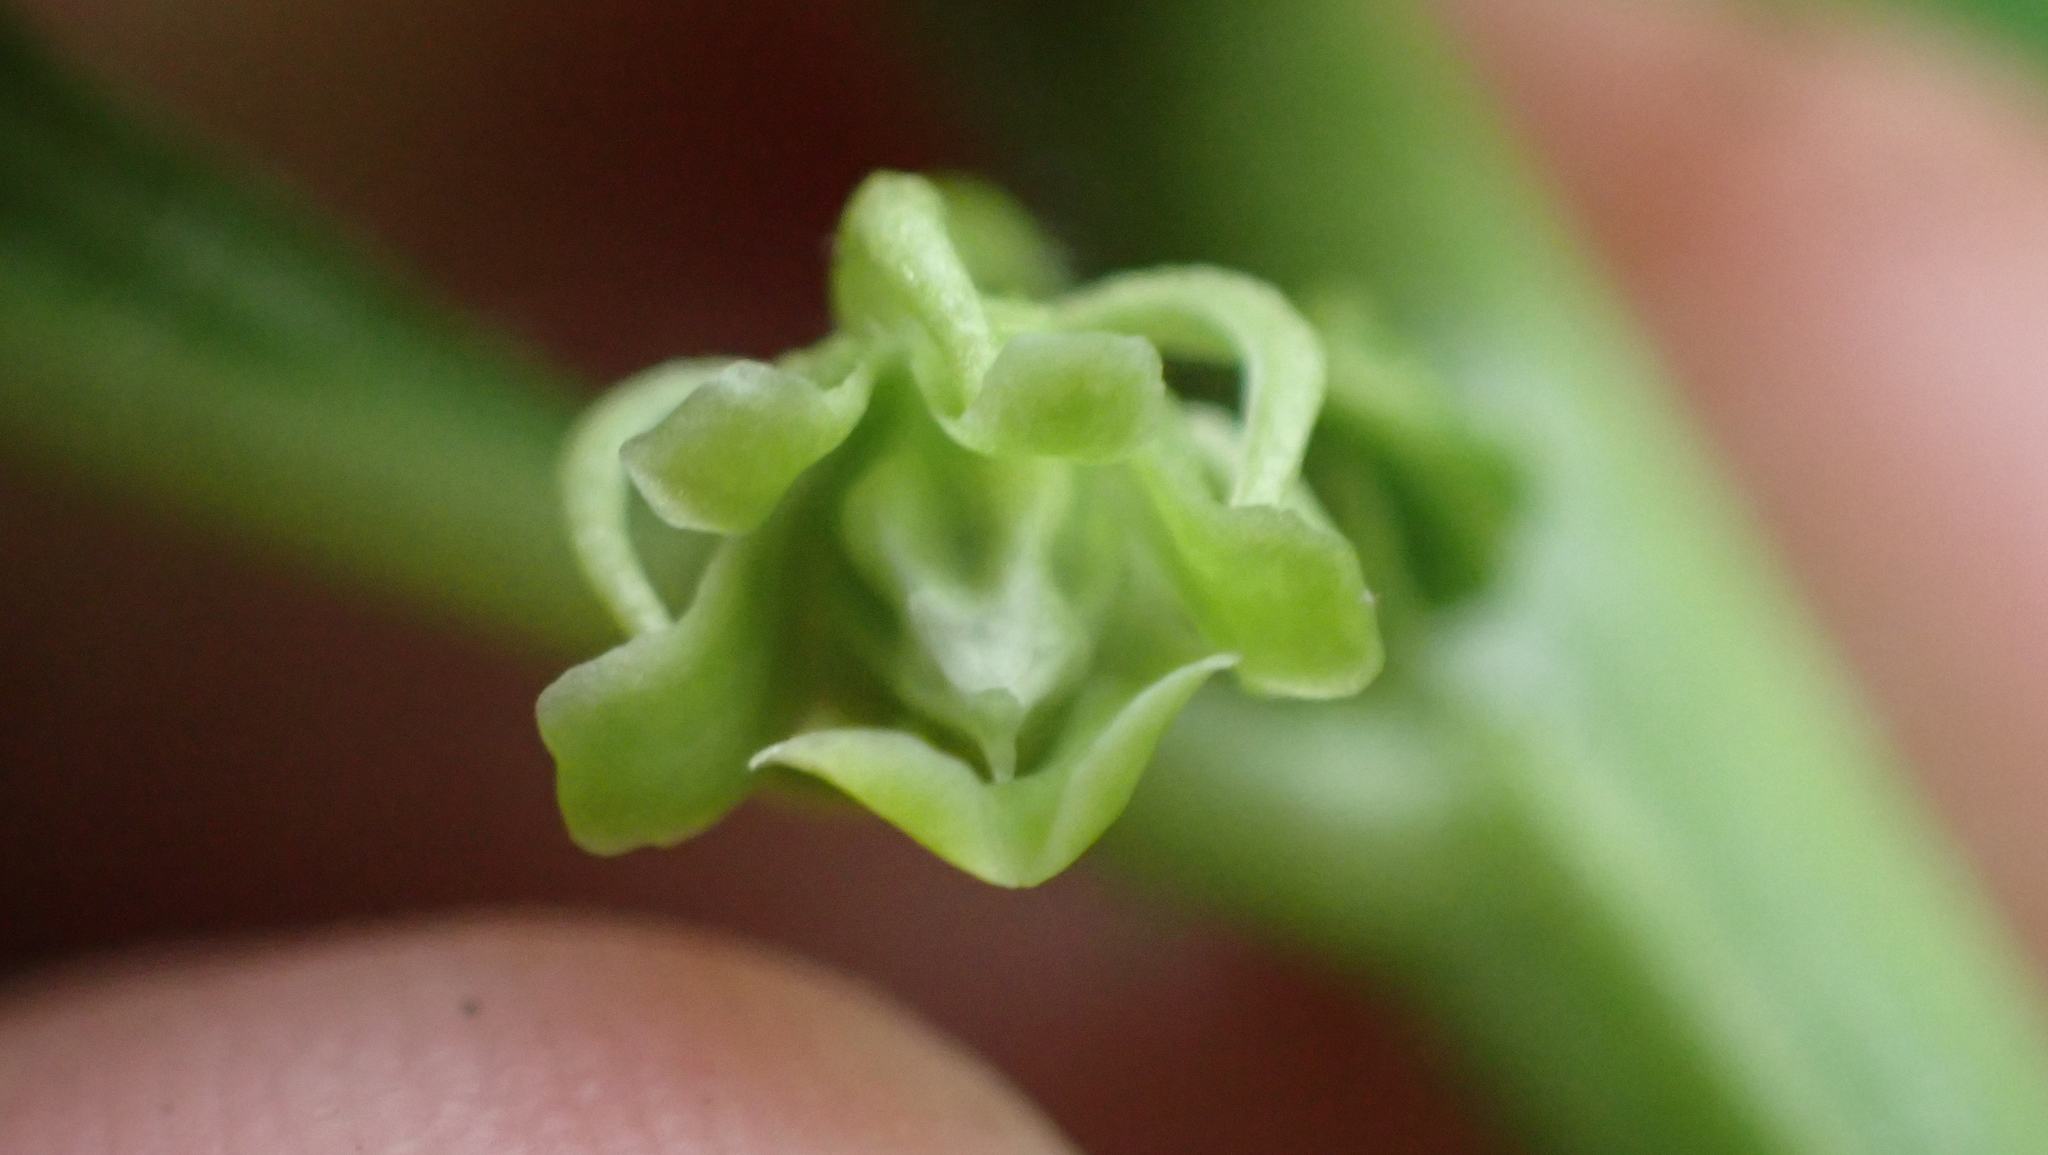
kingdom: Plantae
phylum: Tracheophyta
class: Magnoliopsida
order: Malpighiales
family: Violaceae
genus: Cubelium
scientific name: Cubelium concolor
